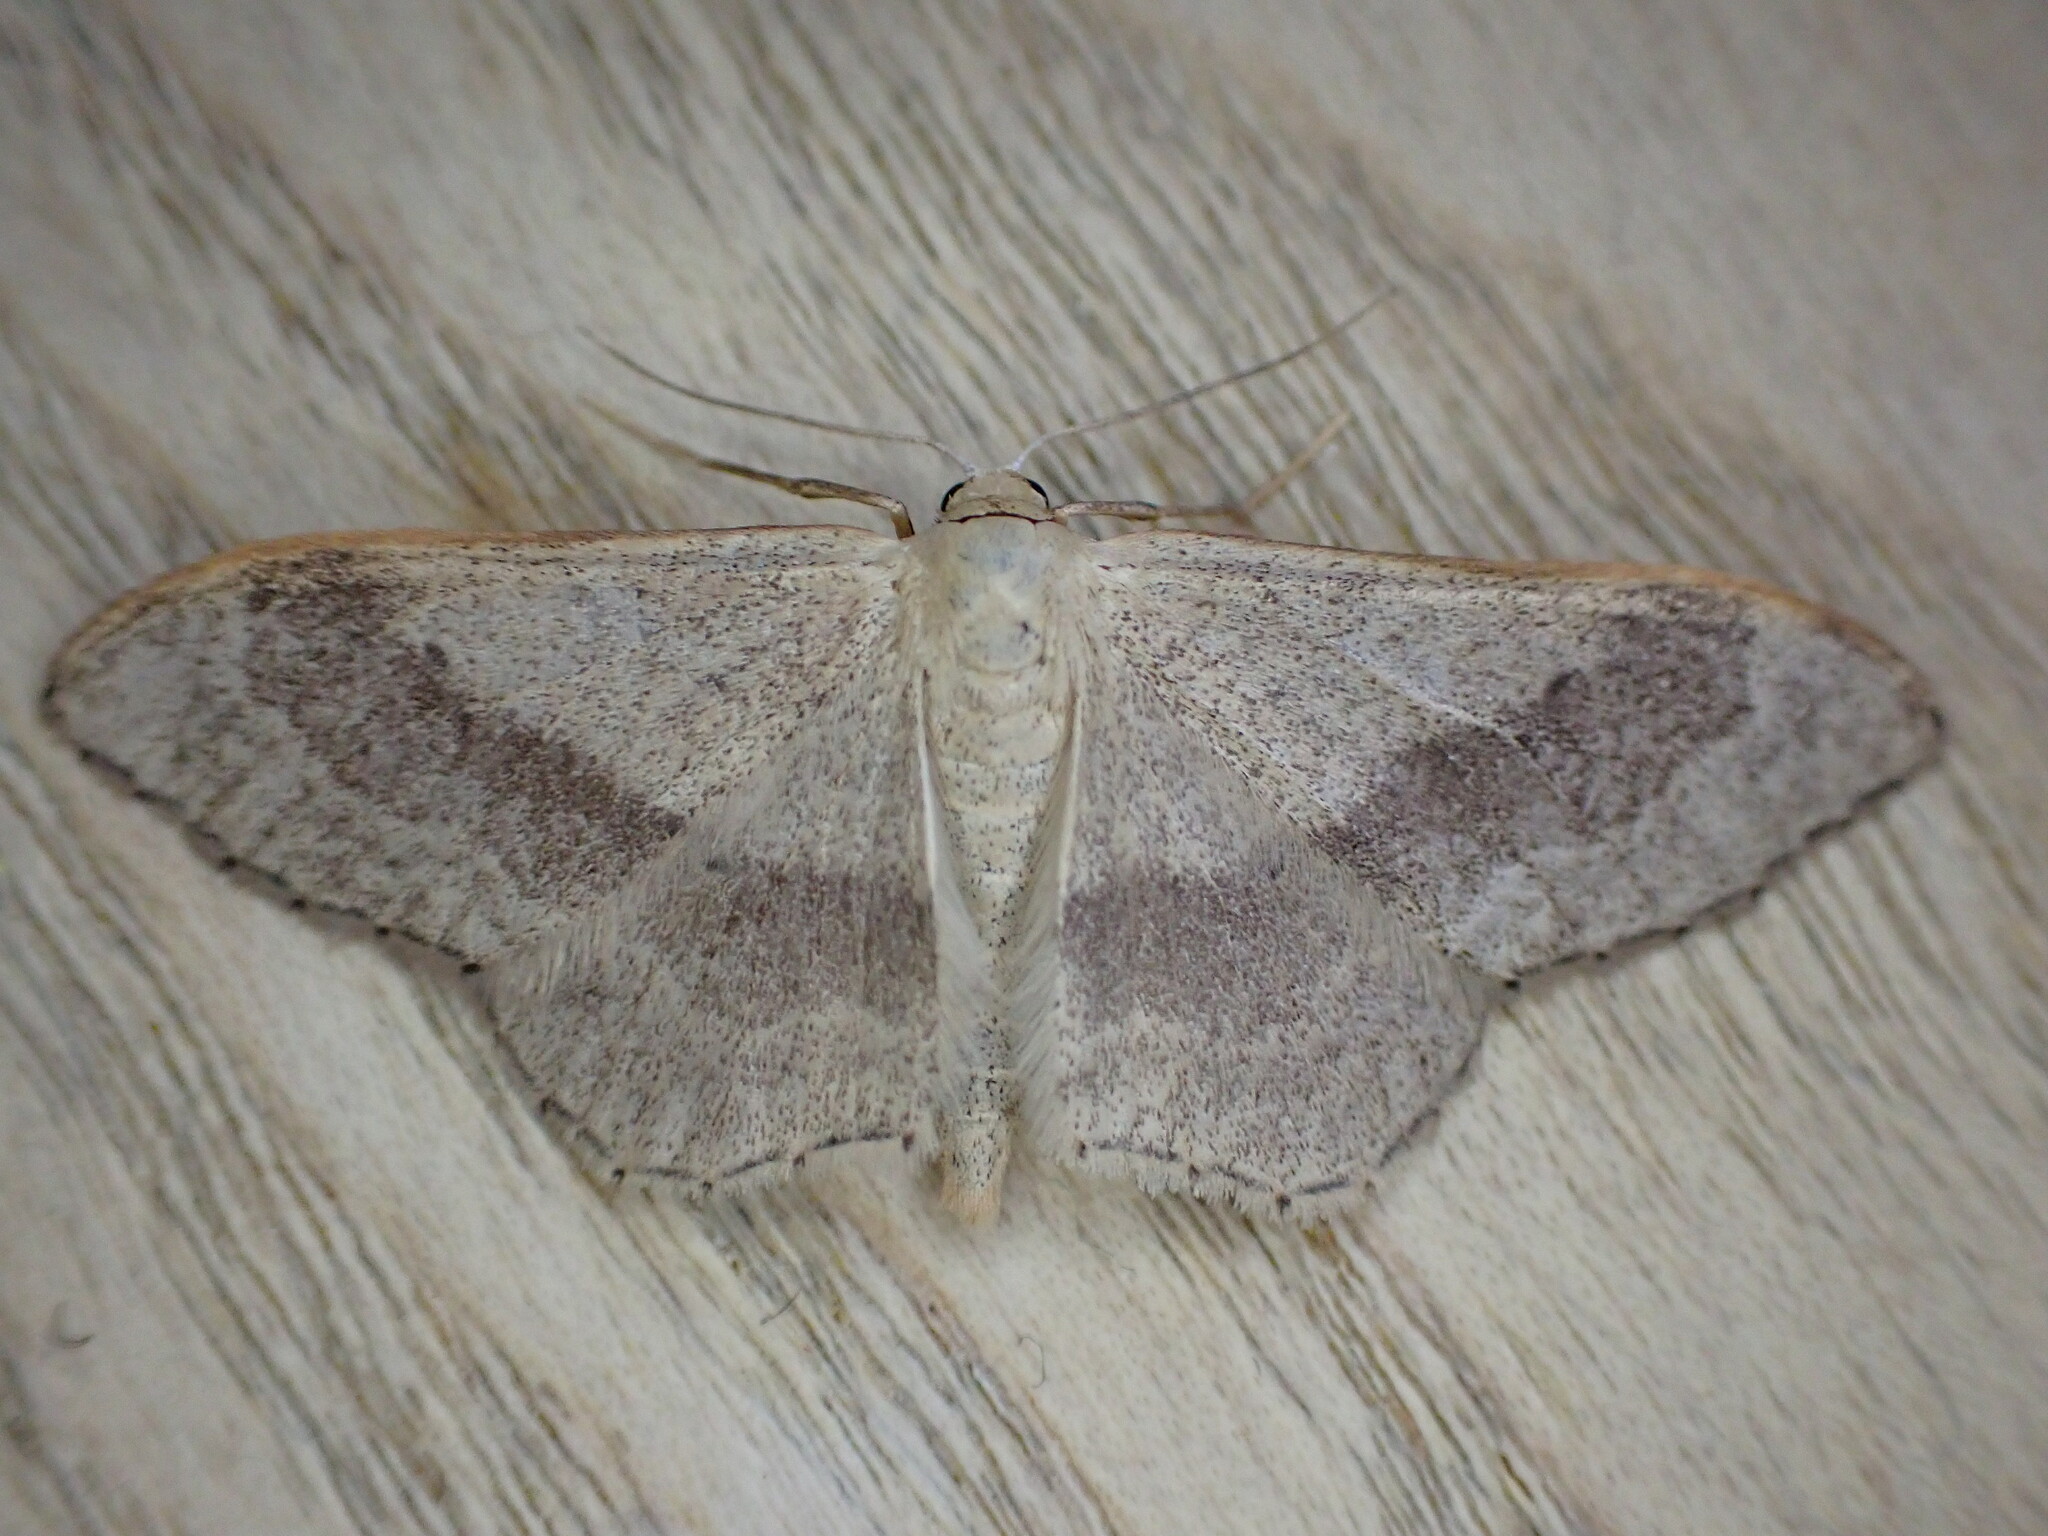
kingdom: Animalia
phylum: Arthropoda
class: Insecta
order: Lepidoptera
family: Geometridae
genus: Idaea
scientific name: Idaea aversata
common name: Riband wave
